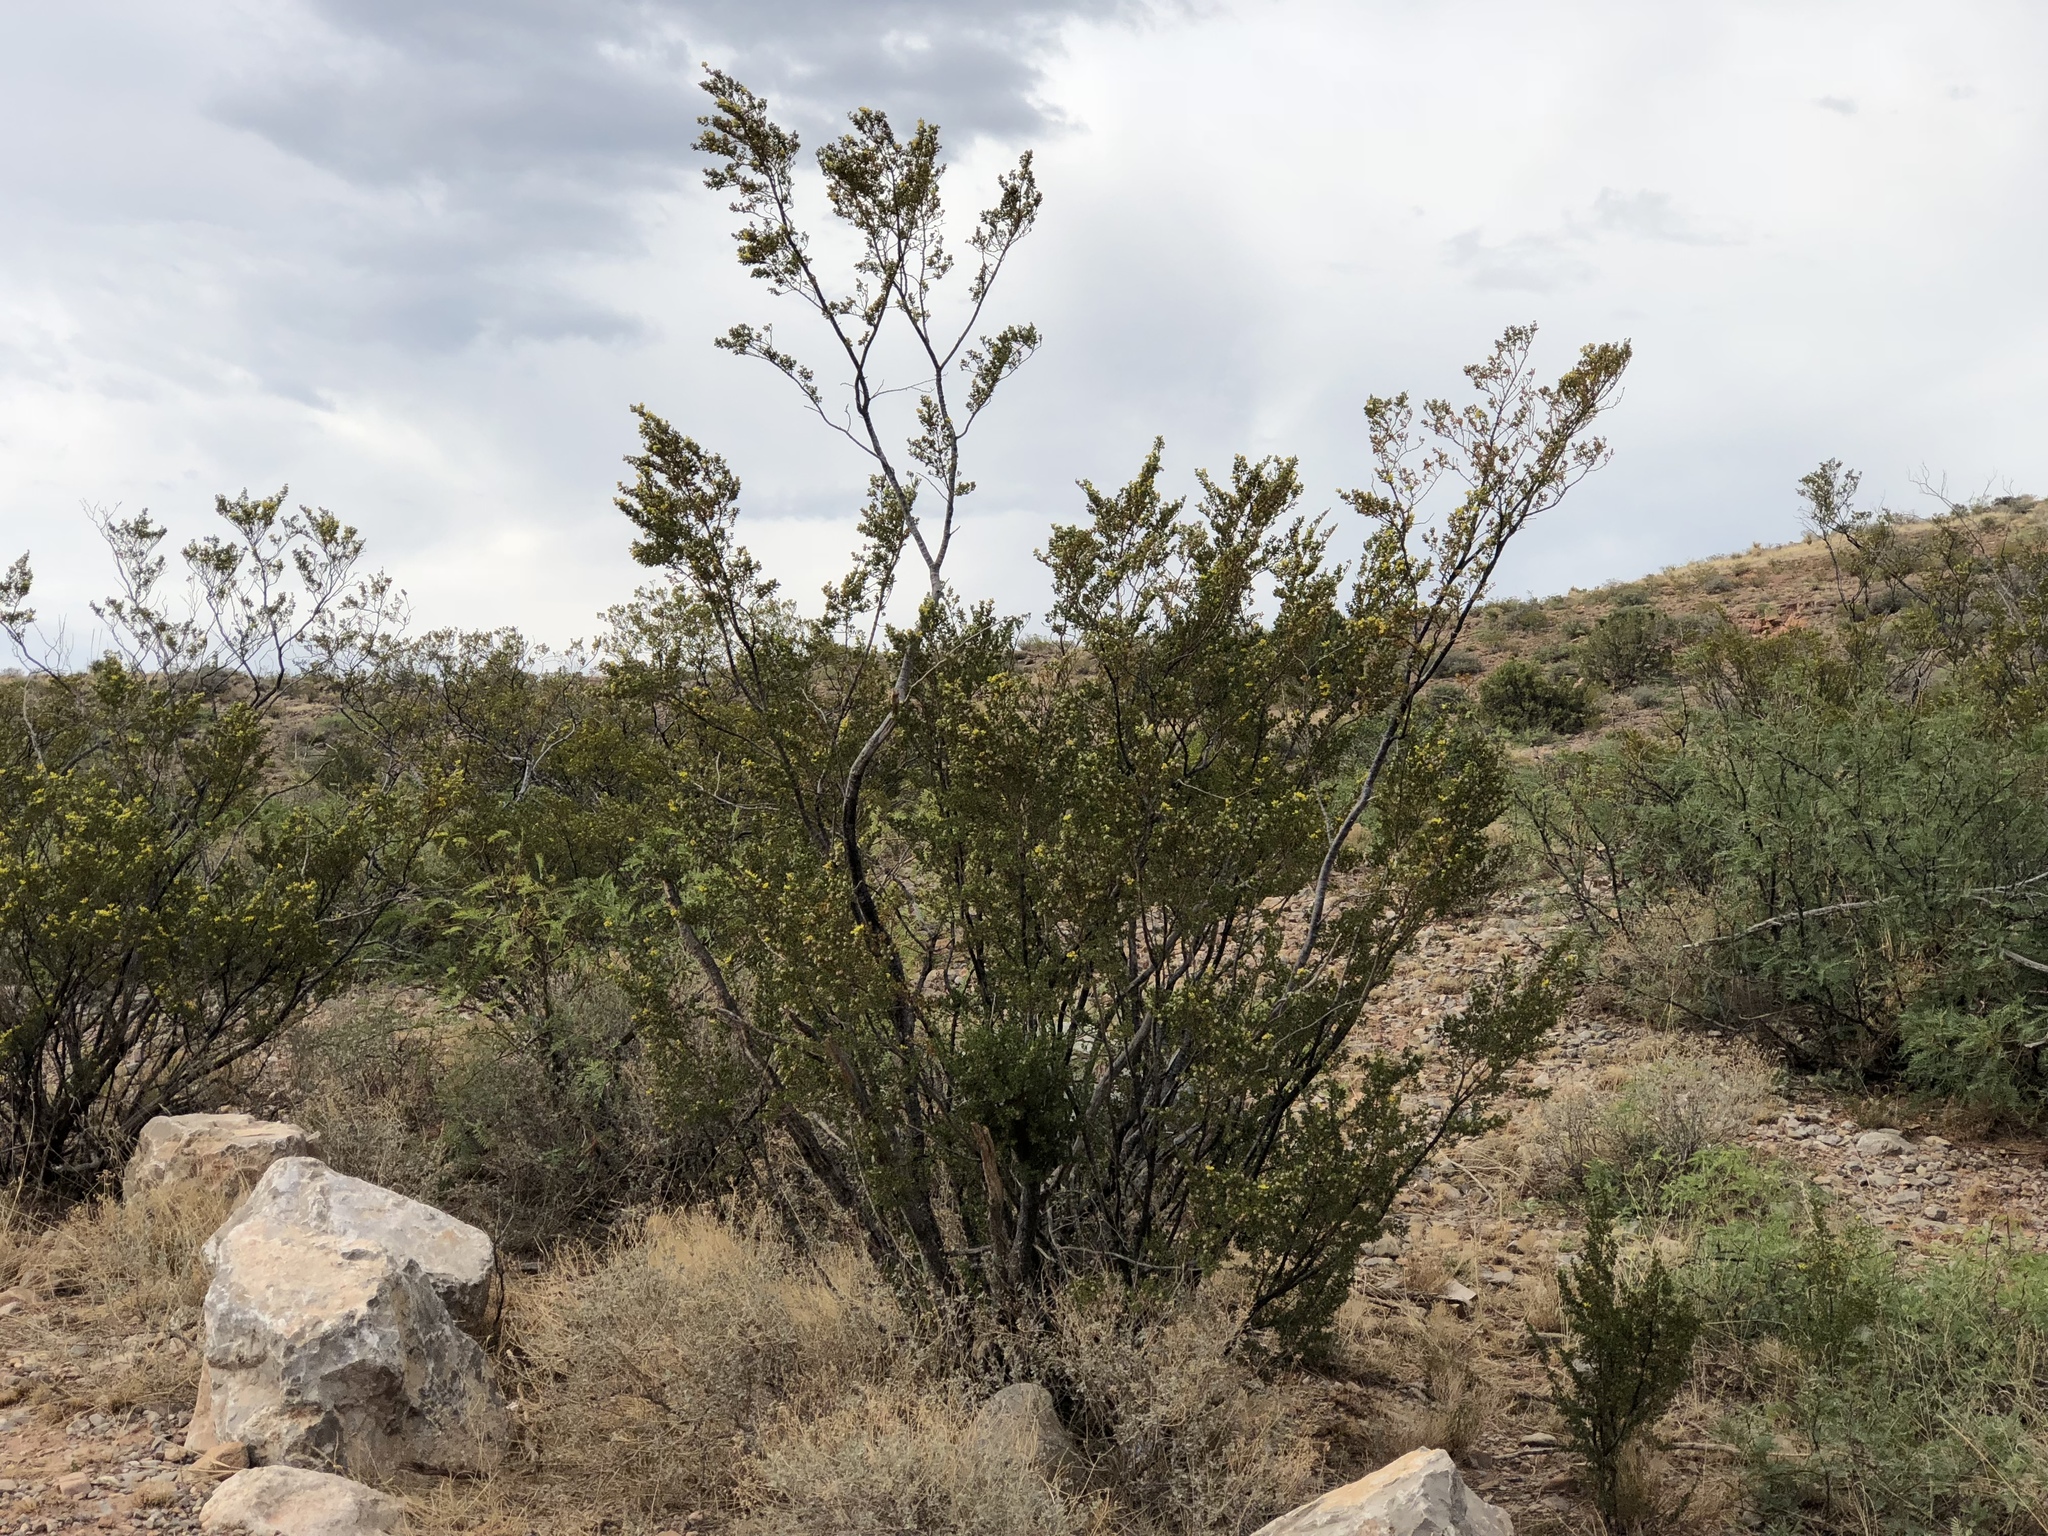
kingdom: Plantae
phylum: Tracheophyta
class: Magnoliopsida
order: Zygophyllales
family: Zygophyllaceae
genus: Larrea
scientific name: Larrea tridentata
